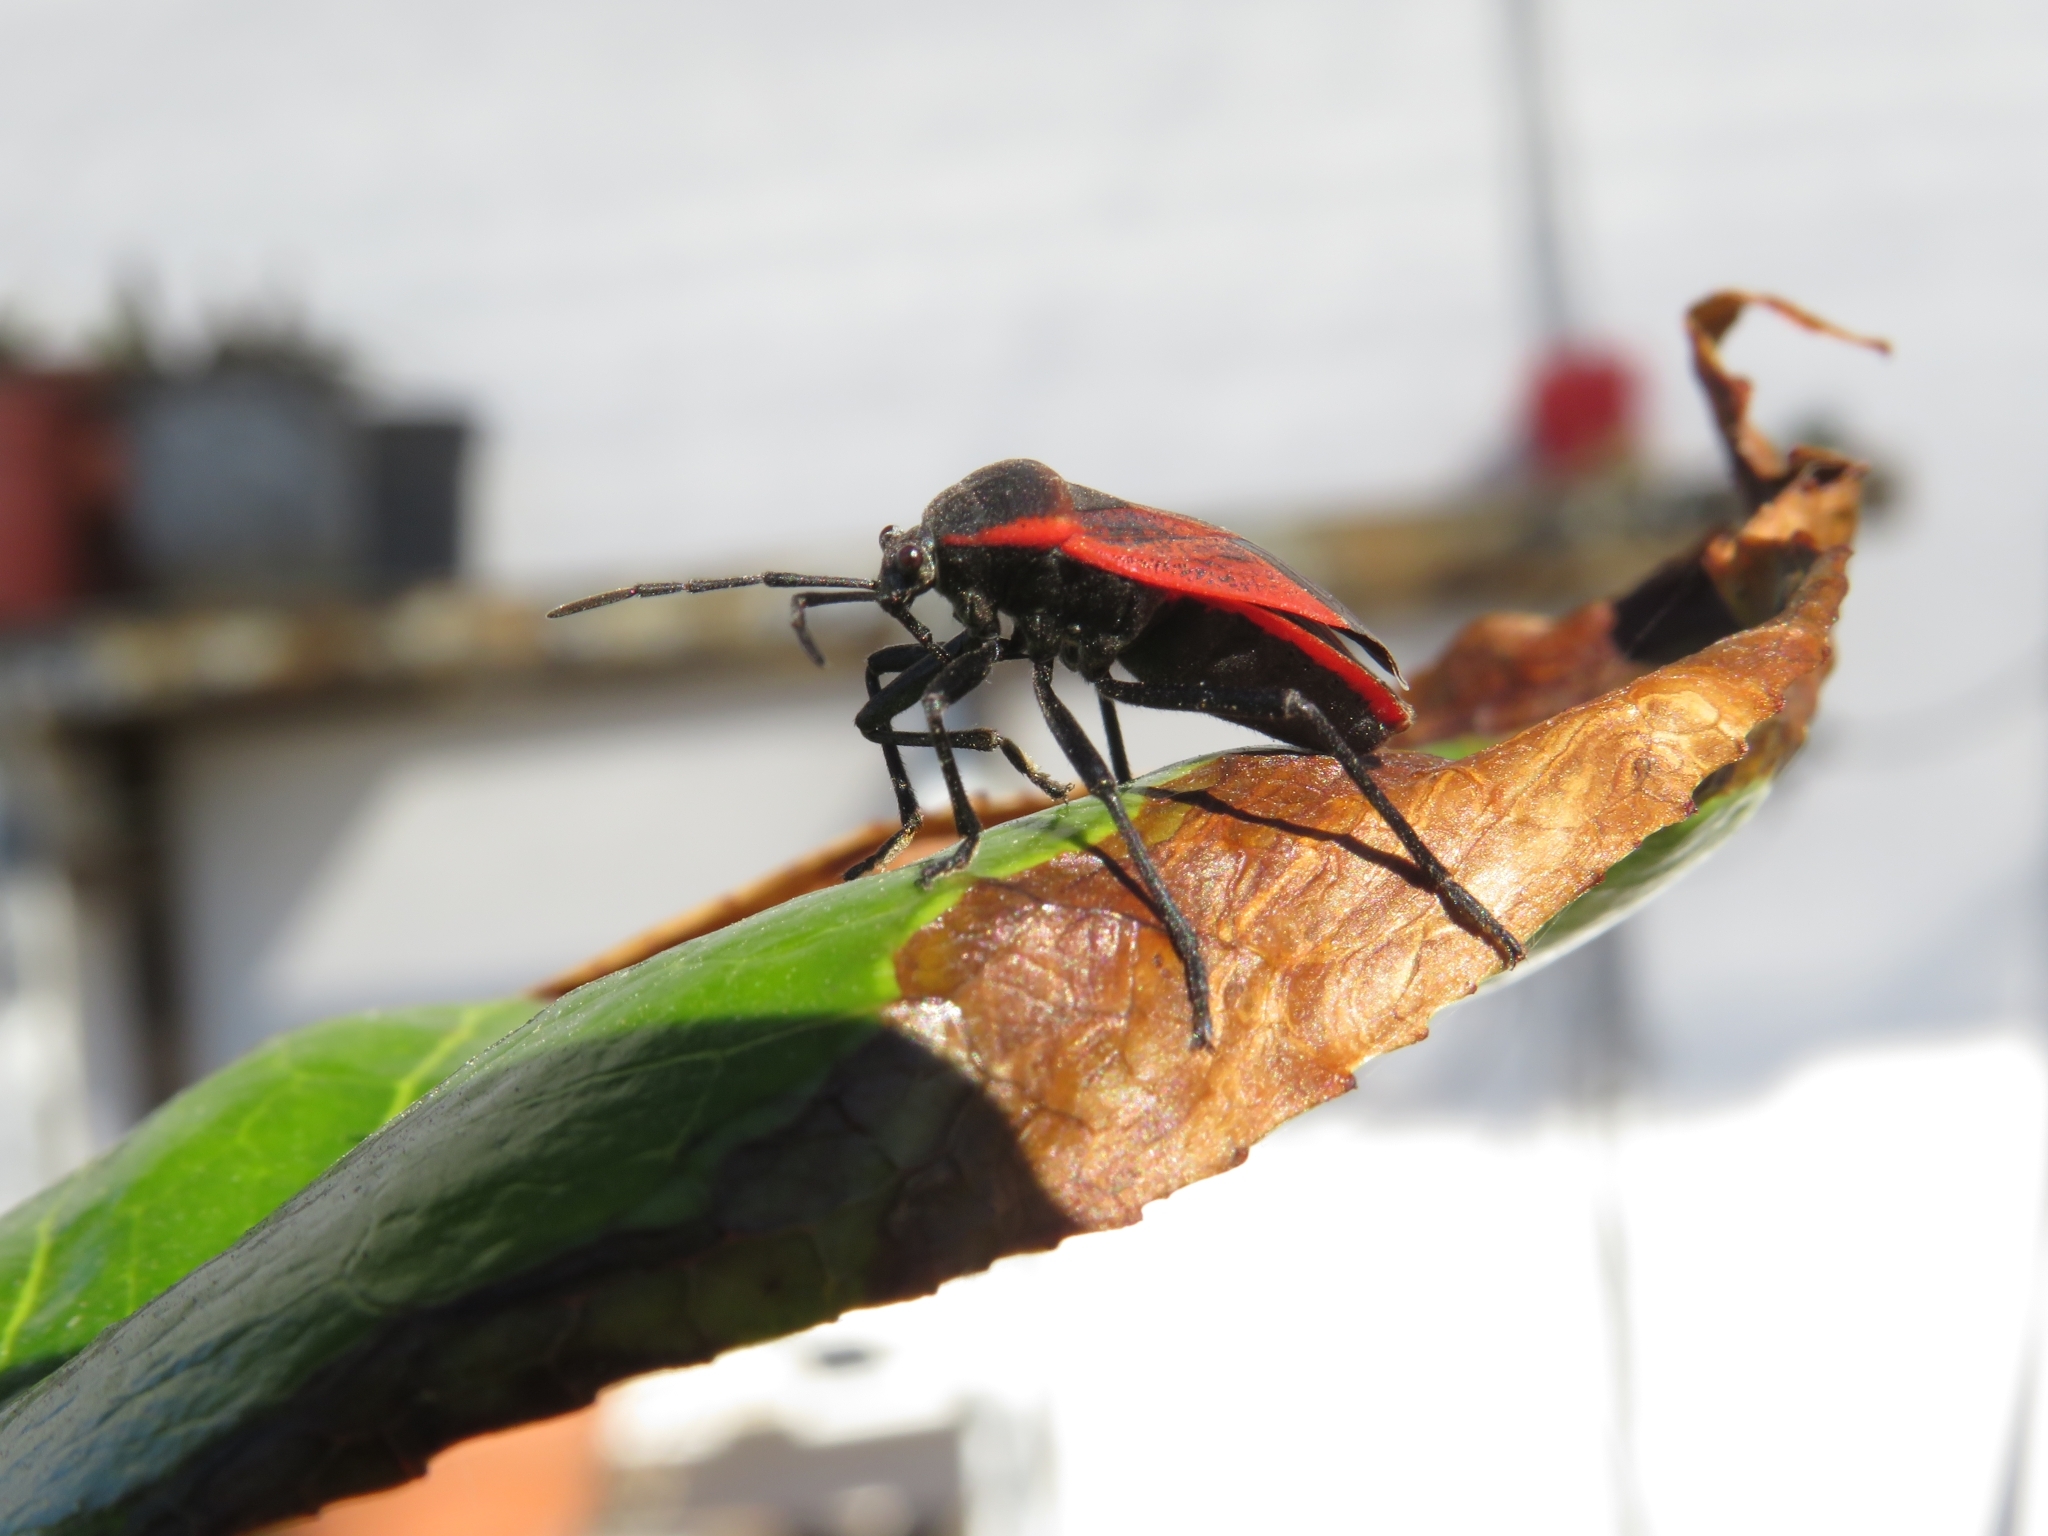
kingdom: Animalia
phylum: Arthropoda
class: Insecta
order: Hemiptera
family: Largidae
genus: Largus
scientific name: Largus rufipennis
